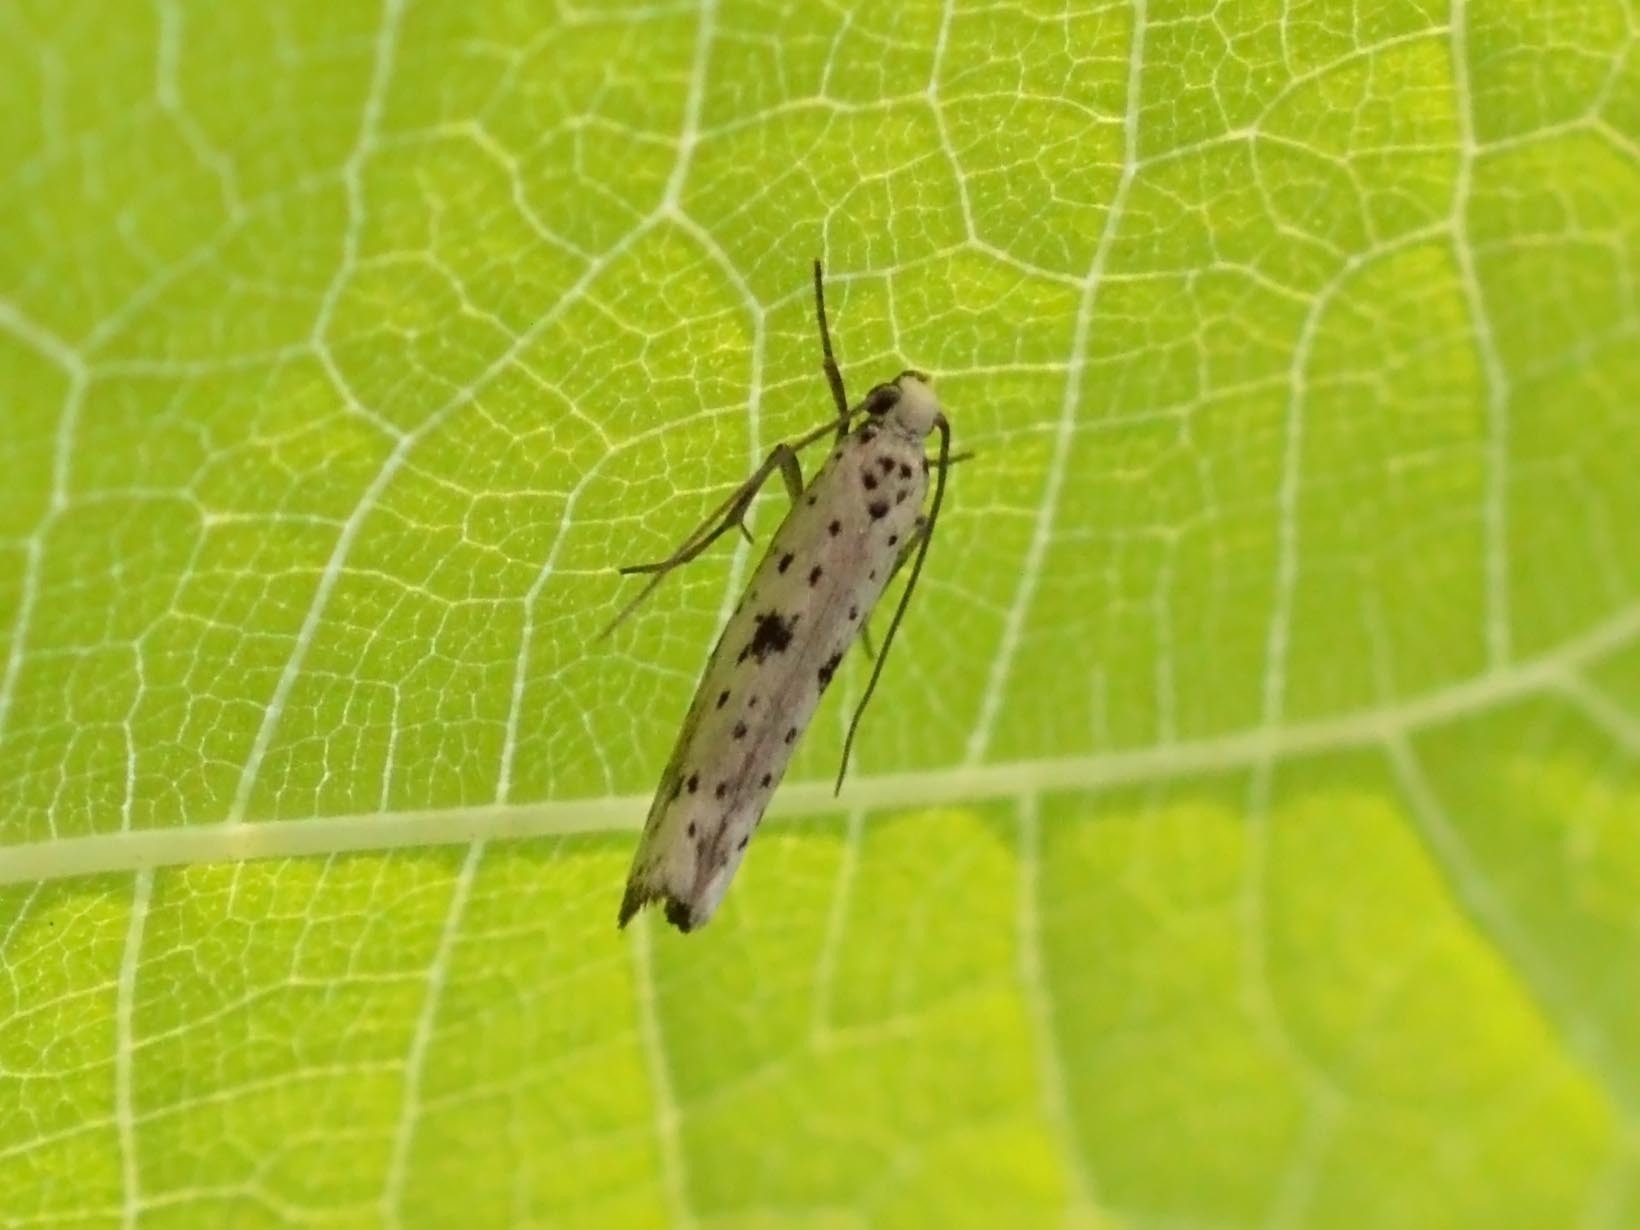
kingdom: Animalia
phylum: Arthropoda
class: Insecta
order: Lepidoptera
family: Yponomeutidae
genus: Yponomeuta
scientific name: Yponomeuta plumbella
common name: Black-tipped ermine
